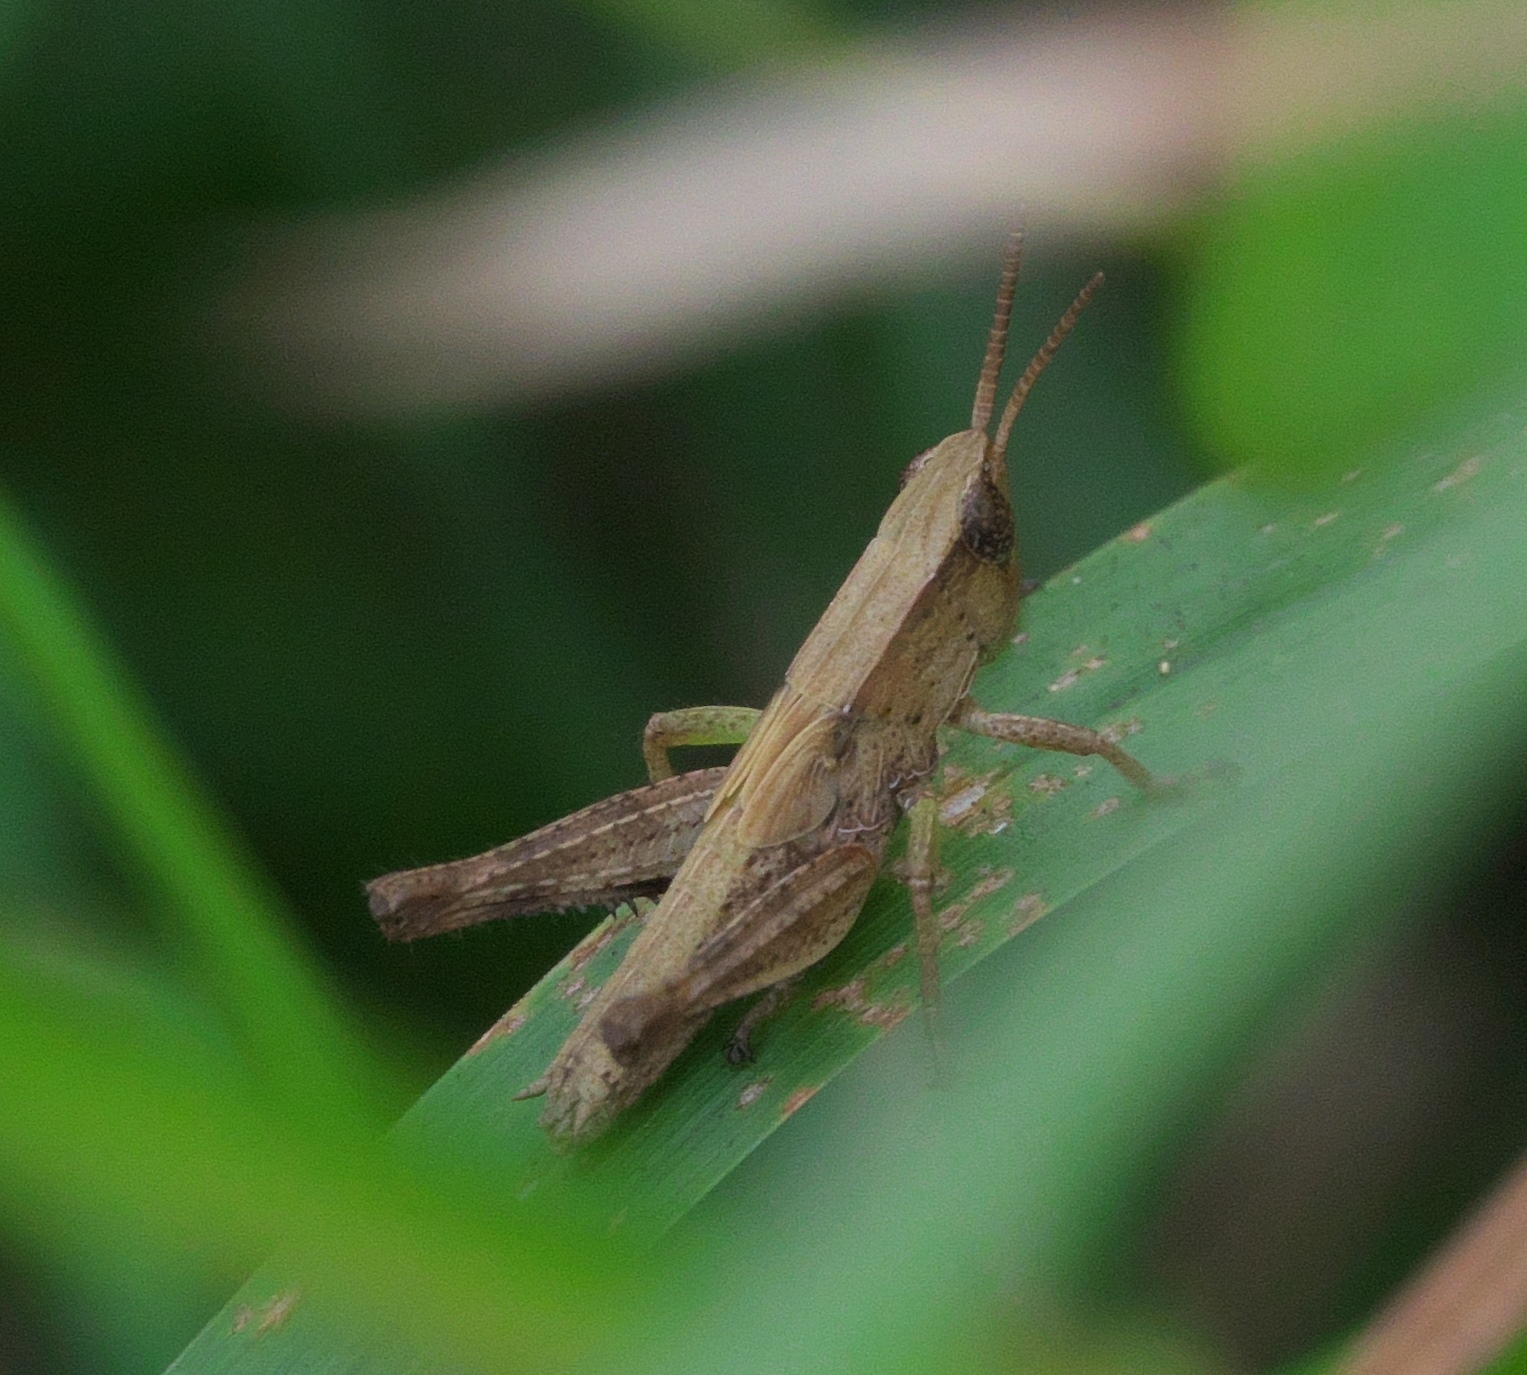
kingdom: Animalia
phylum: Arthropoda
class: Insecta
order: Orthoptera
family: Acrididae
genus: Dichromorpha
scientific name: Dichromorpha viridis
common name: Short-winged green grasshopper
